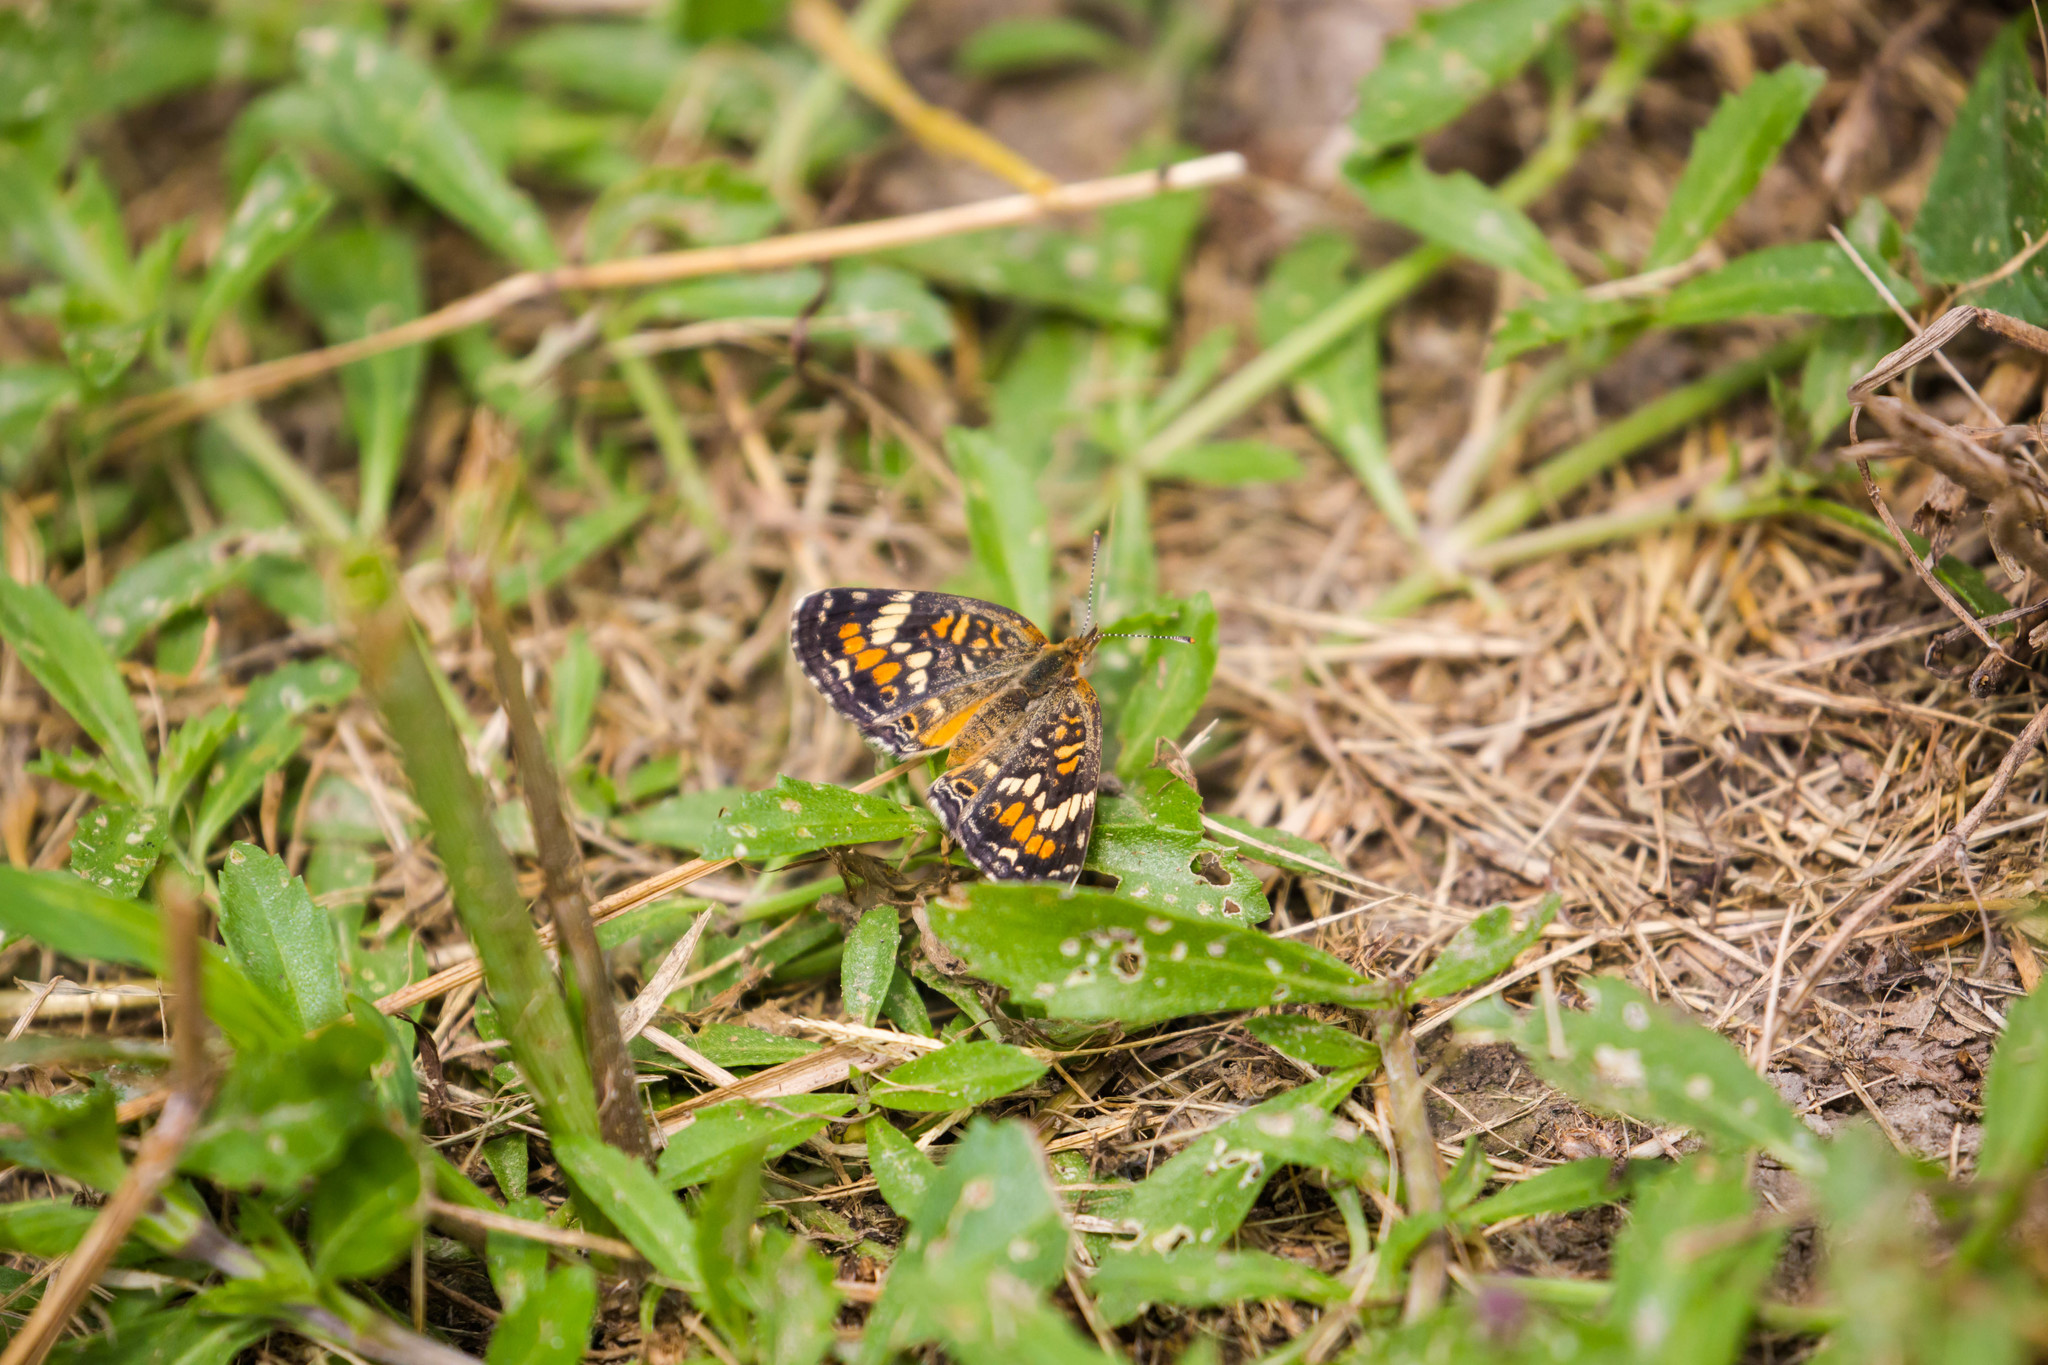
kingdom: Animalia
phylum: Arthropoda
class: Insecta
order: Lepidoptera
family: Nymphalidae
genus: Phyciodes
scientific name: Phyciodes phaon
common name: Phaon crescent
